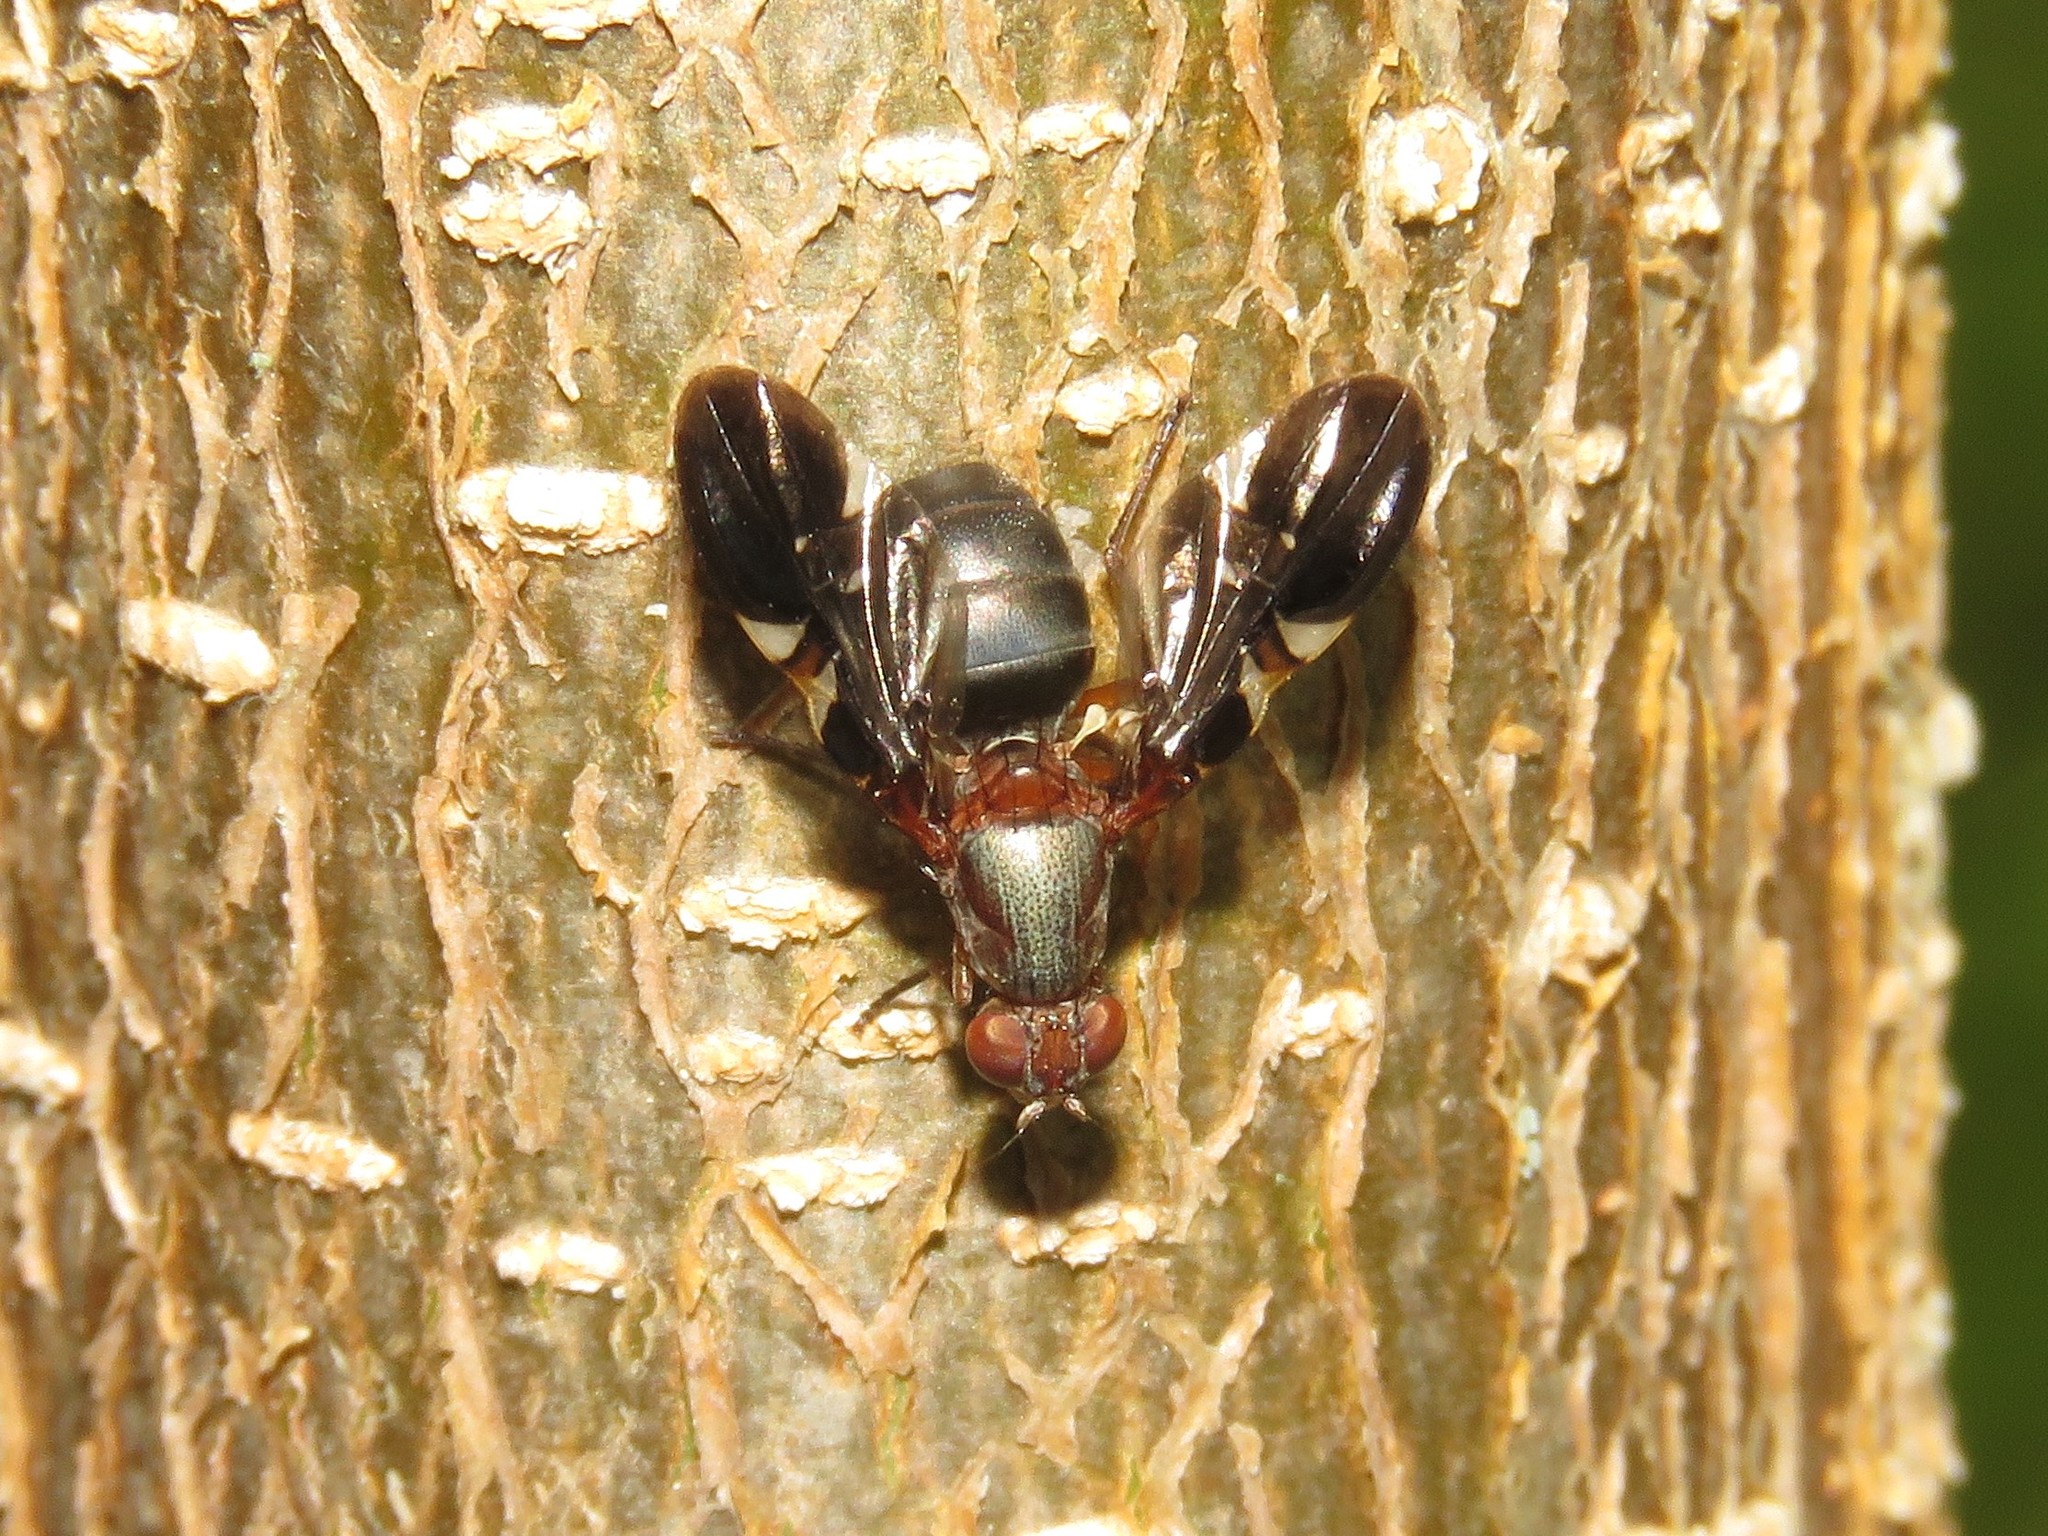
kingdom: Animalia
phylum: Arthropoda
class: Insecta
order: Diptera
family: Ulidiidae
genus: Delphinia
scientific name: Delphinia picta
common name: Common picture-winged fly
